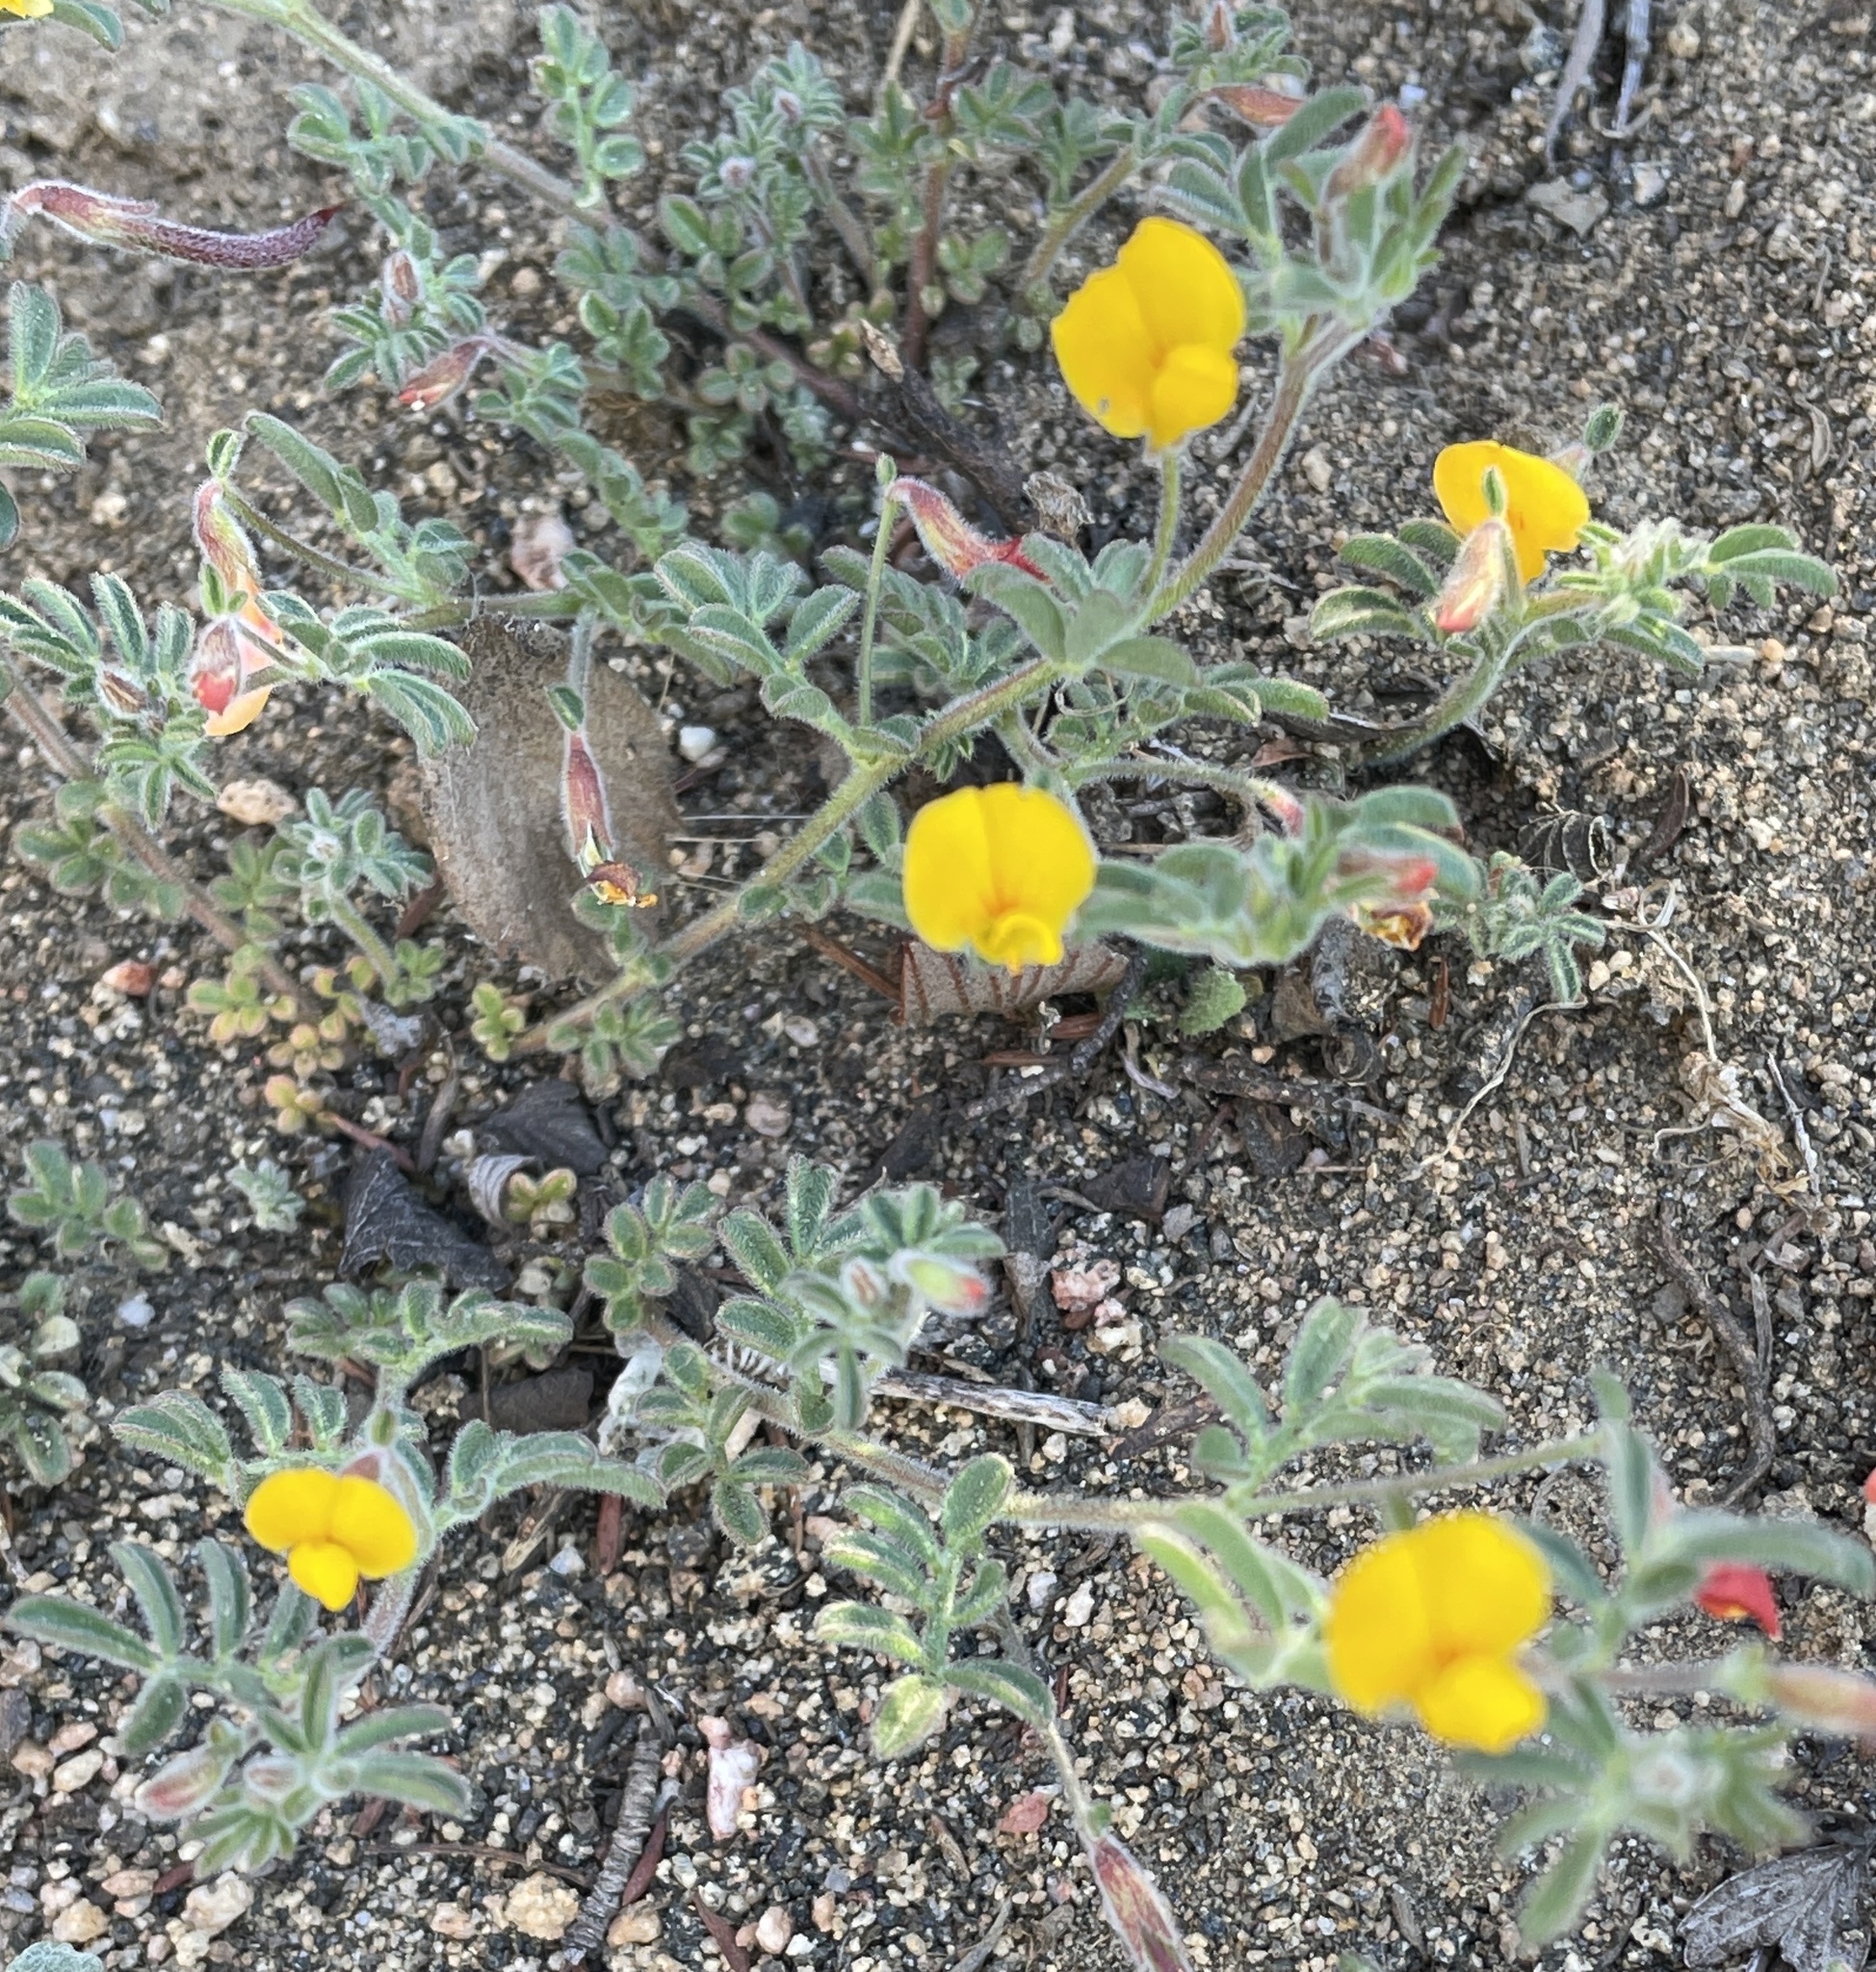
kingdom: Plantae
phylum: Tracheophyta
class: Magnoliopsida
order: Fabales
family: Fabaceae
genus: Acmispon
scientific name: Acmispon strigosus
